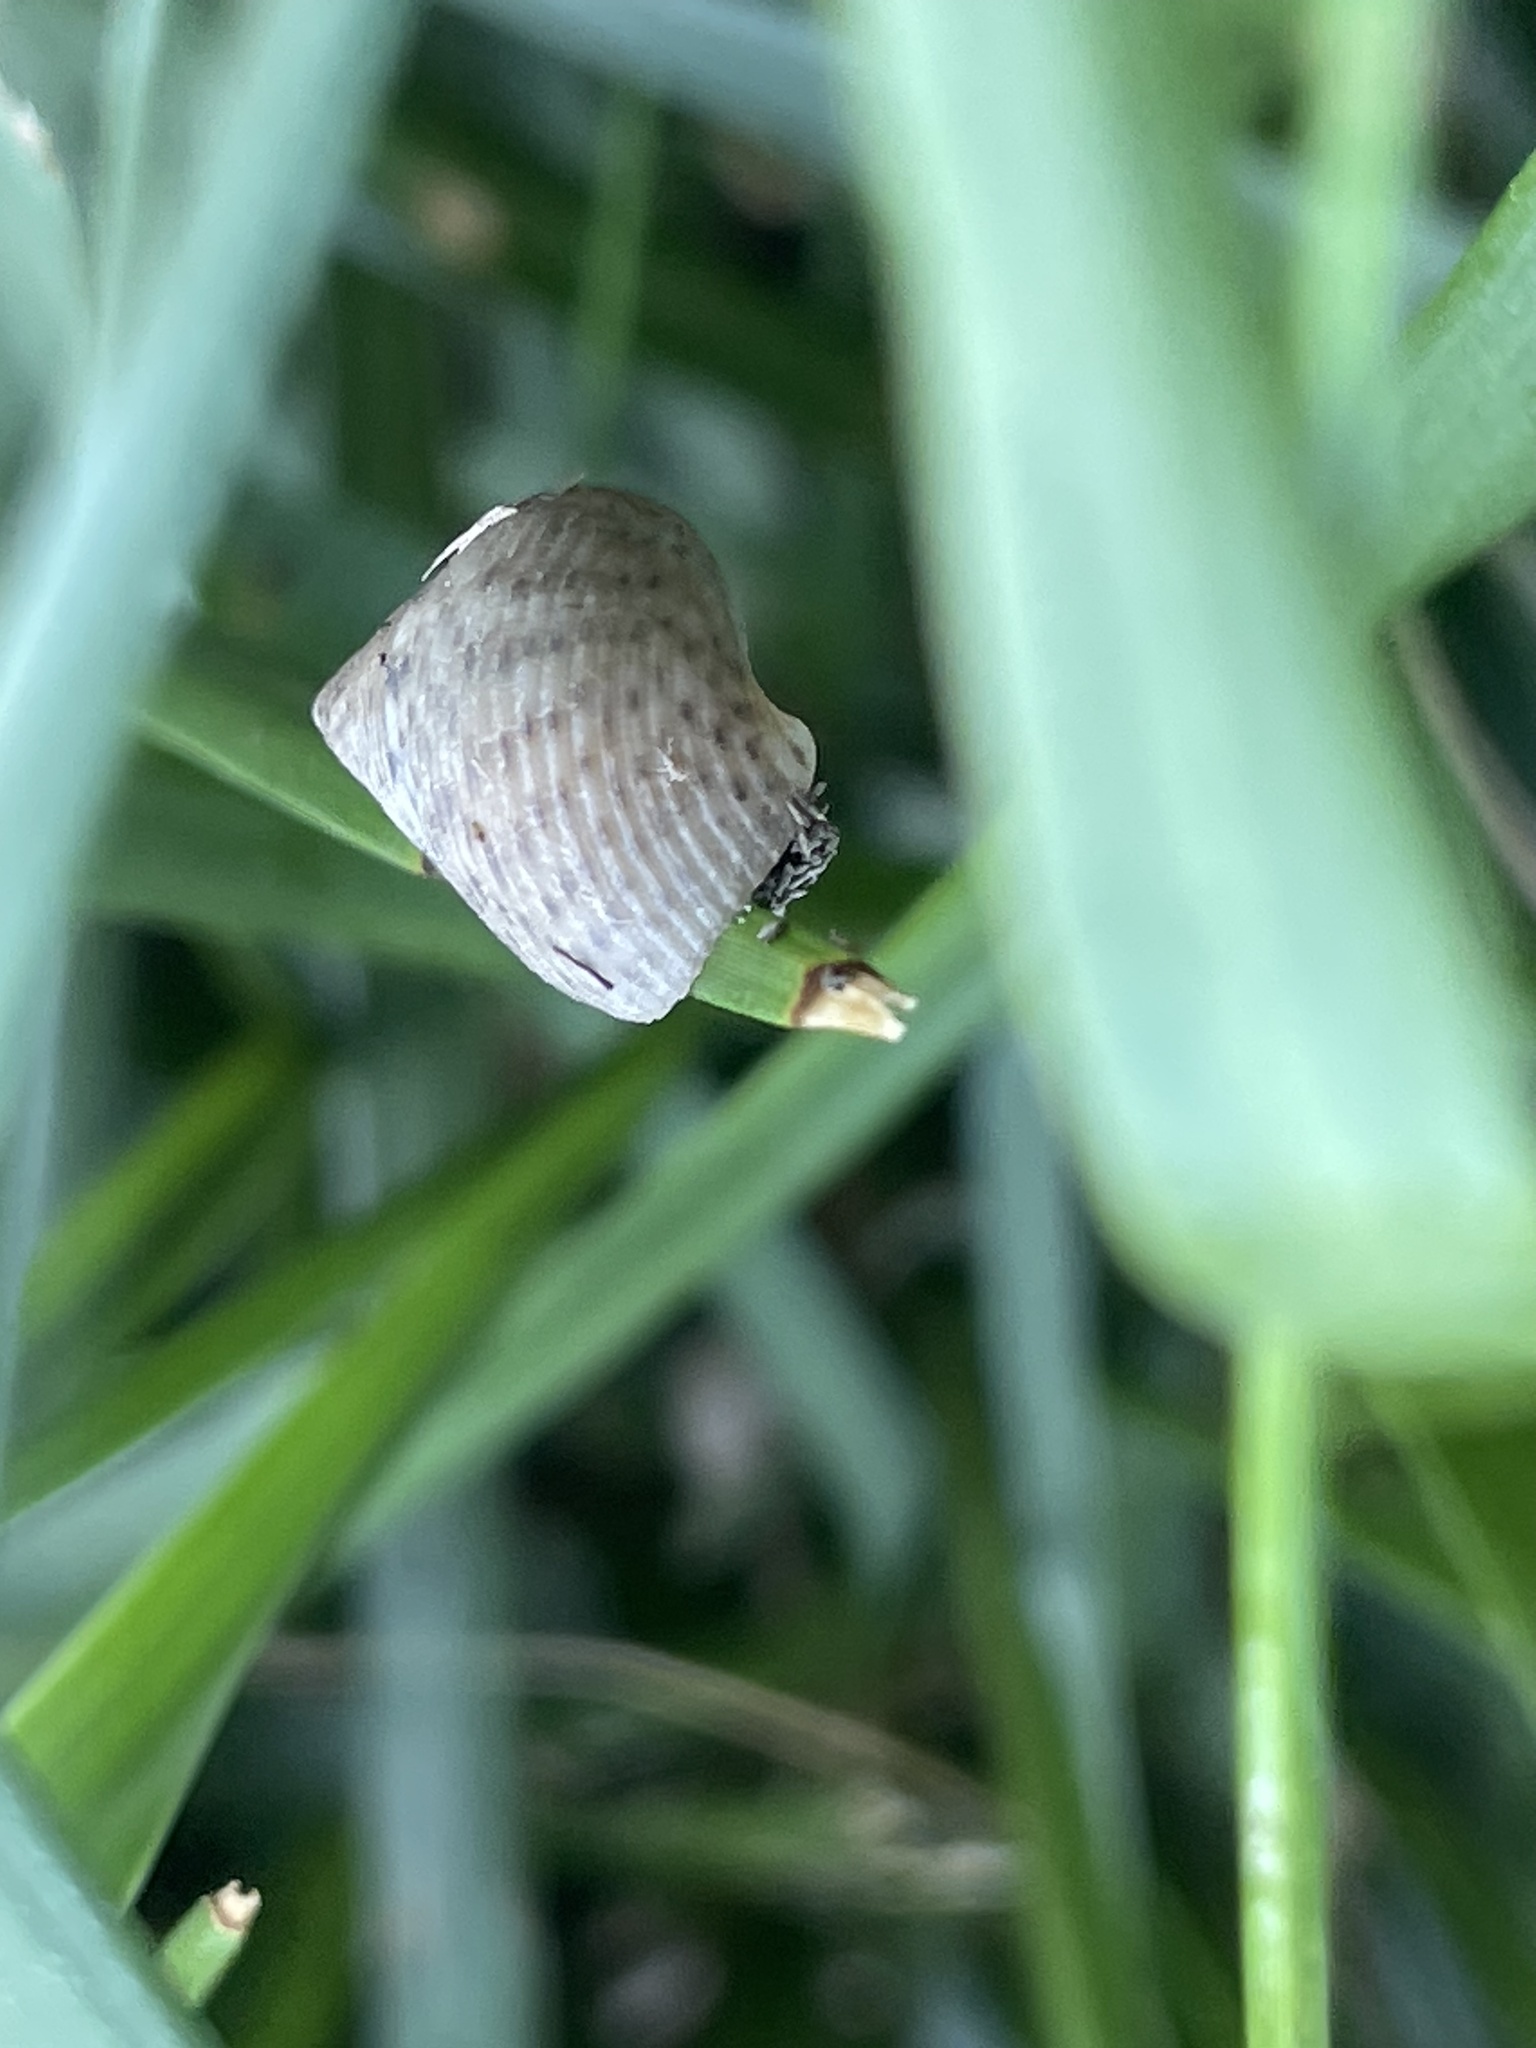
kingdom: Animalia
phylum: Mollusca
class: Gastropoda
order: Littorinimorpha
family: Littorinidae
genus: Littoraria
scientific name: Littoraria irrorata
